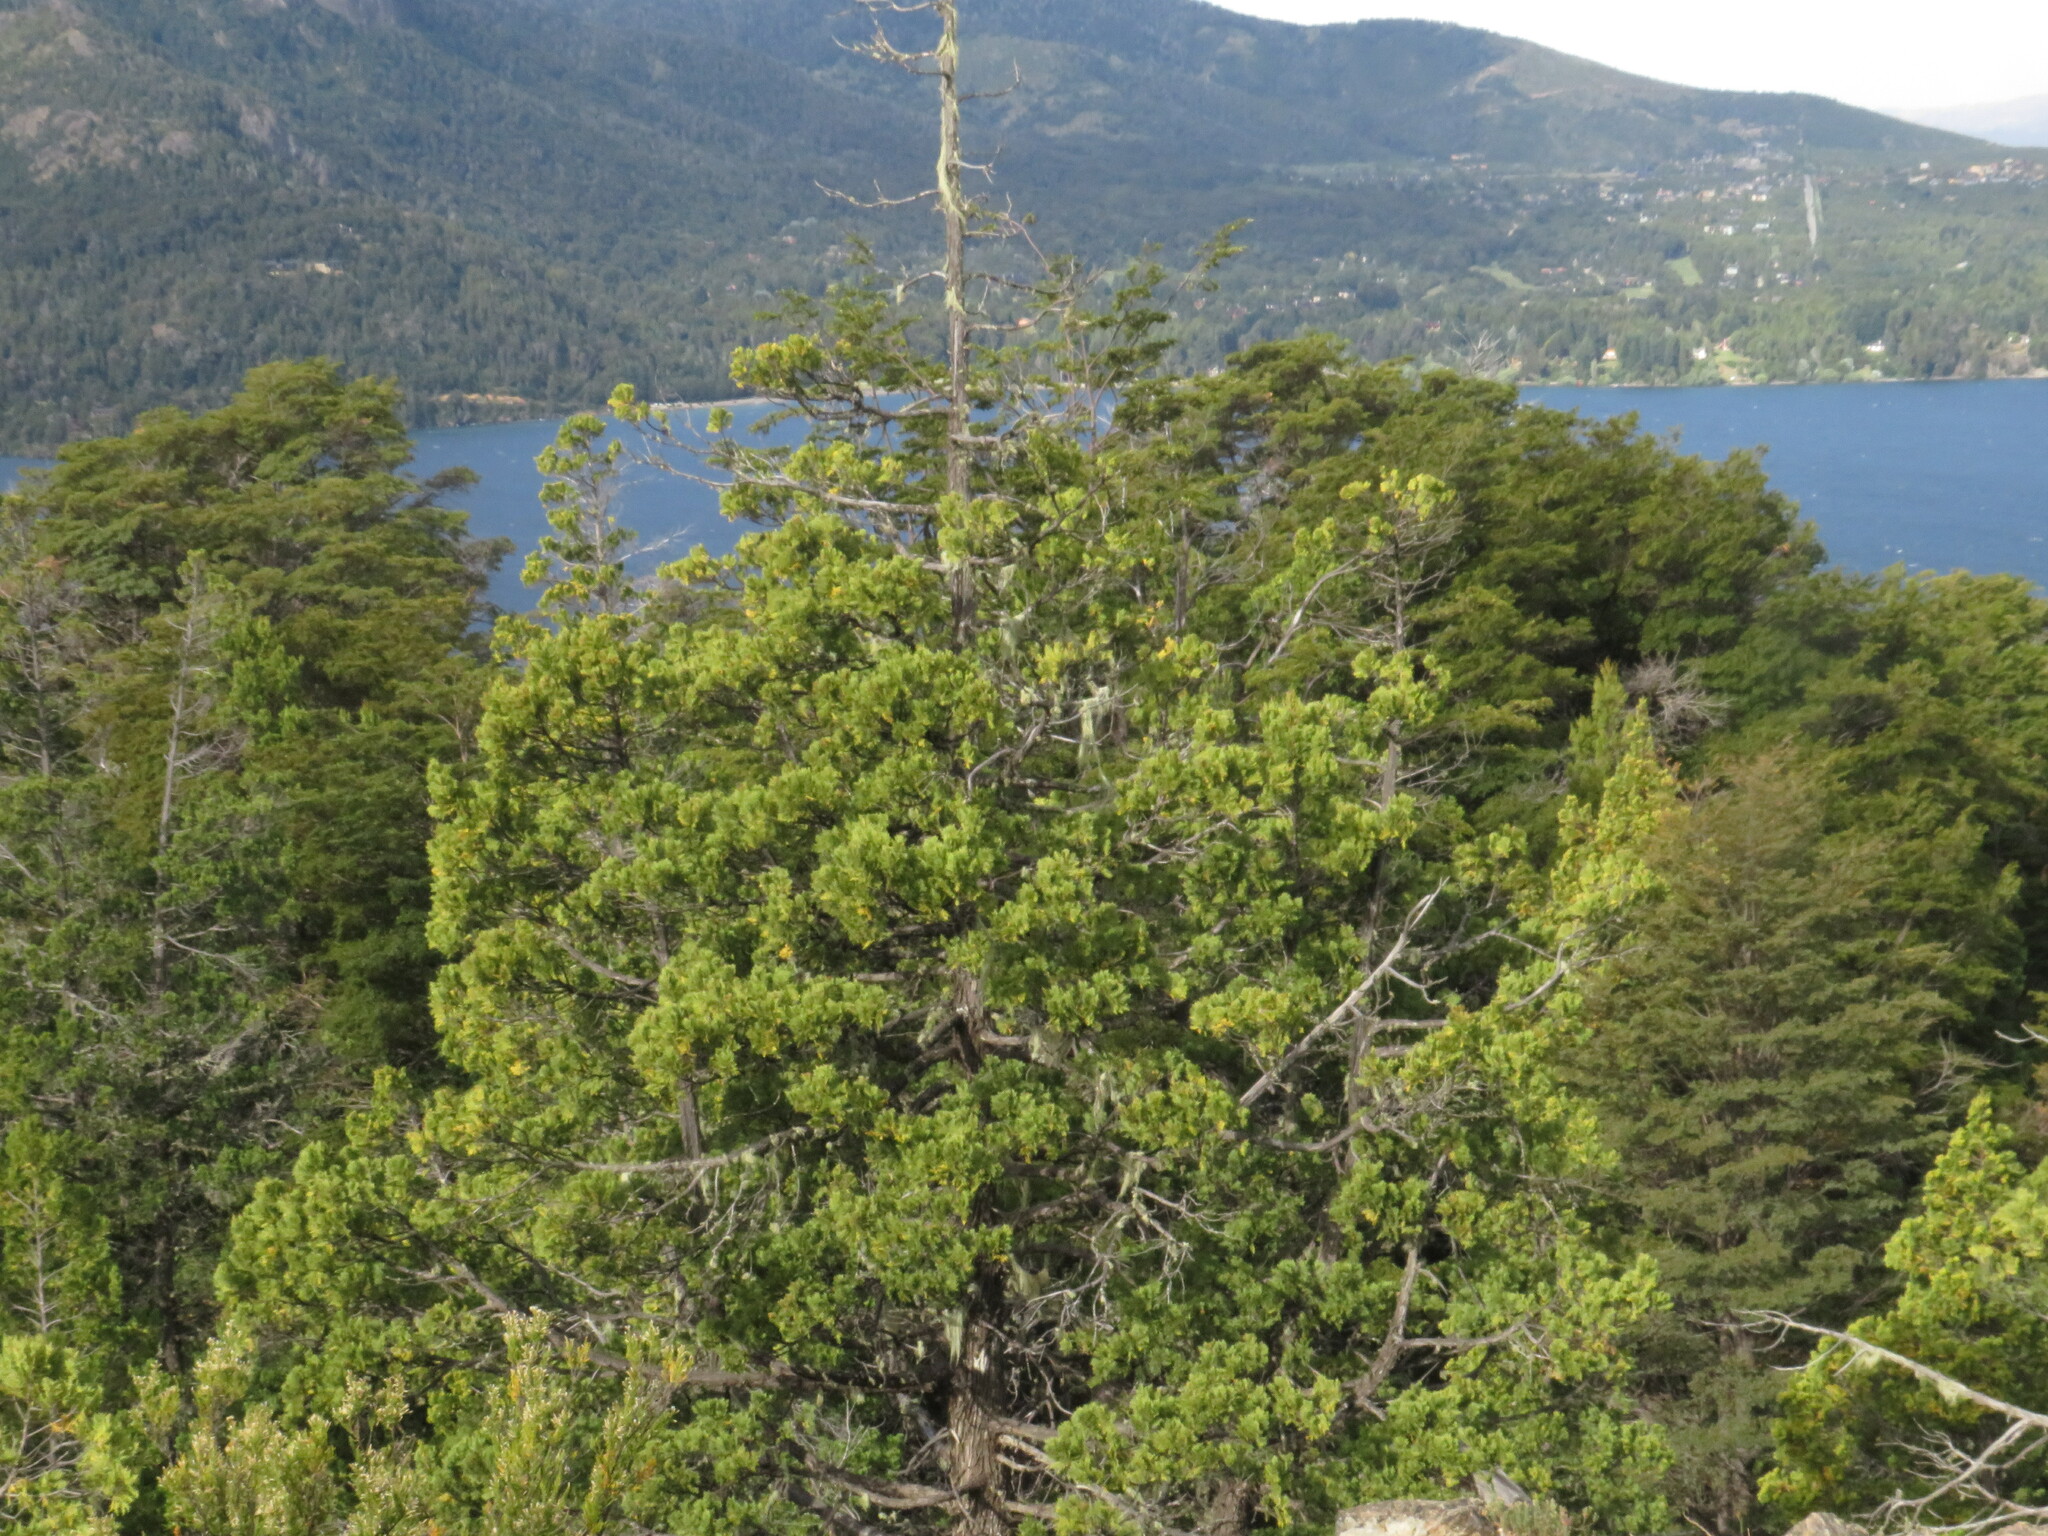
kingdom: Plantae
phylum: Tracheophyta
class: Pinopsida
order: Pinales
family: Cupressaceae
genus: Austrocedrus
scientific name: Austrocedrus chilensis
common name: Chilean incense-cedar
